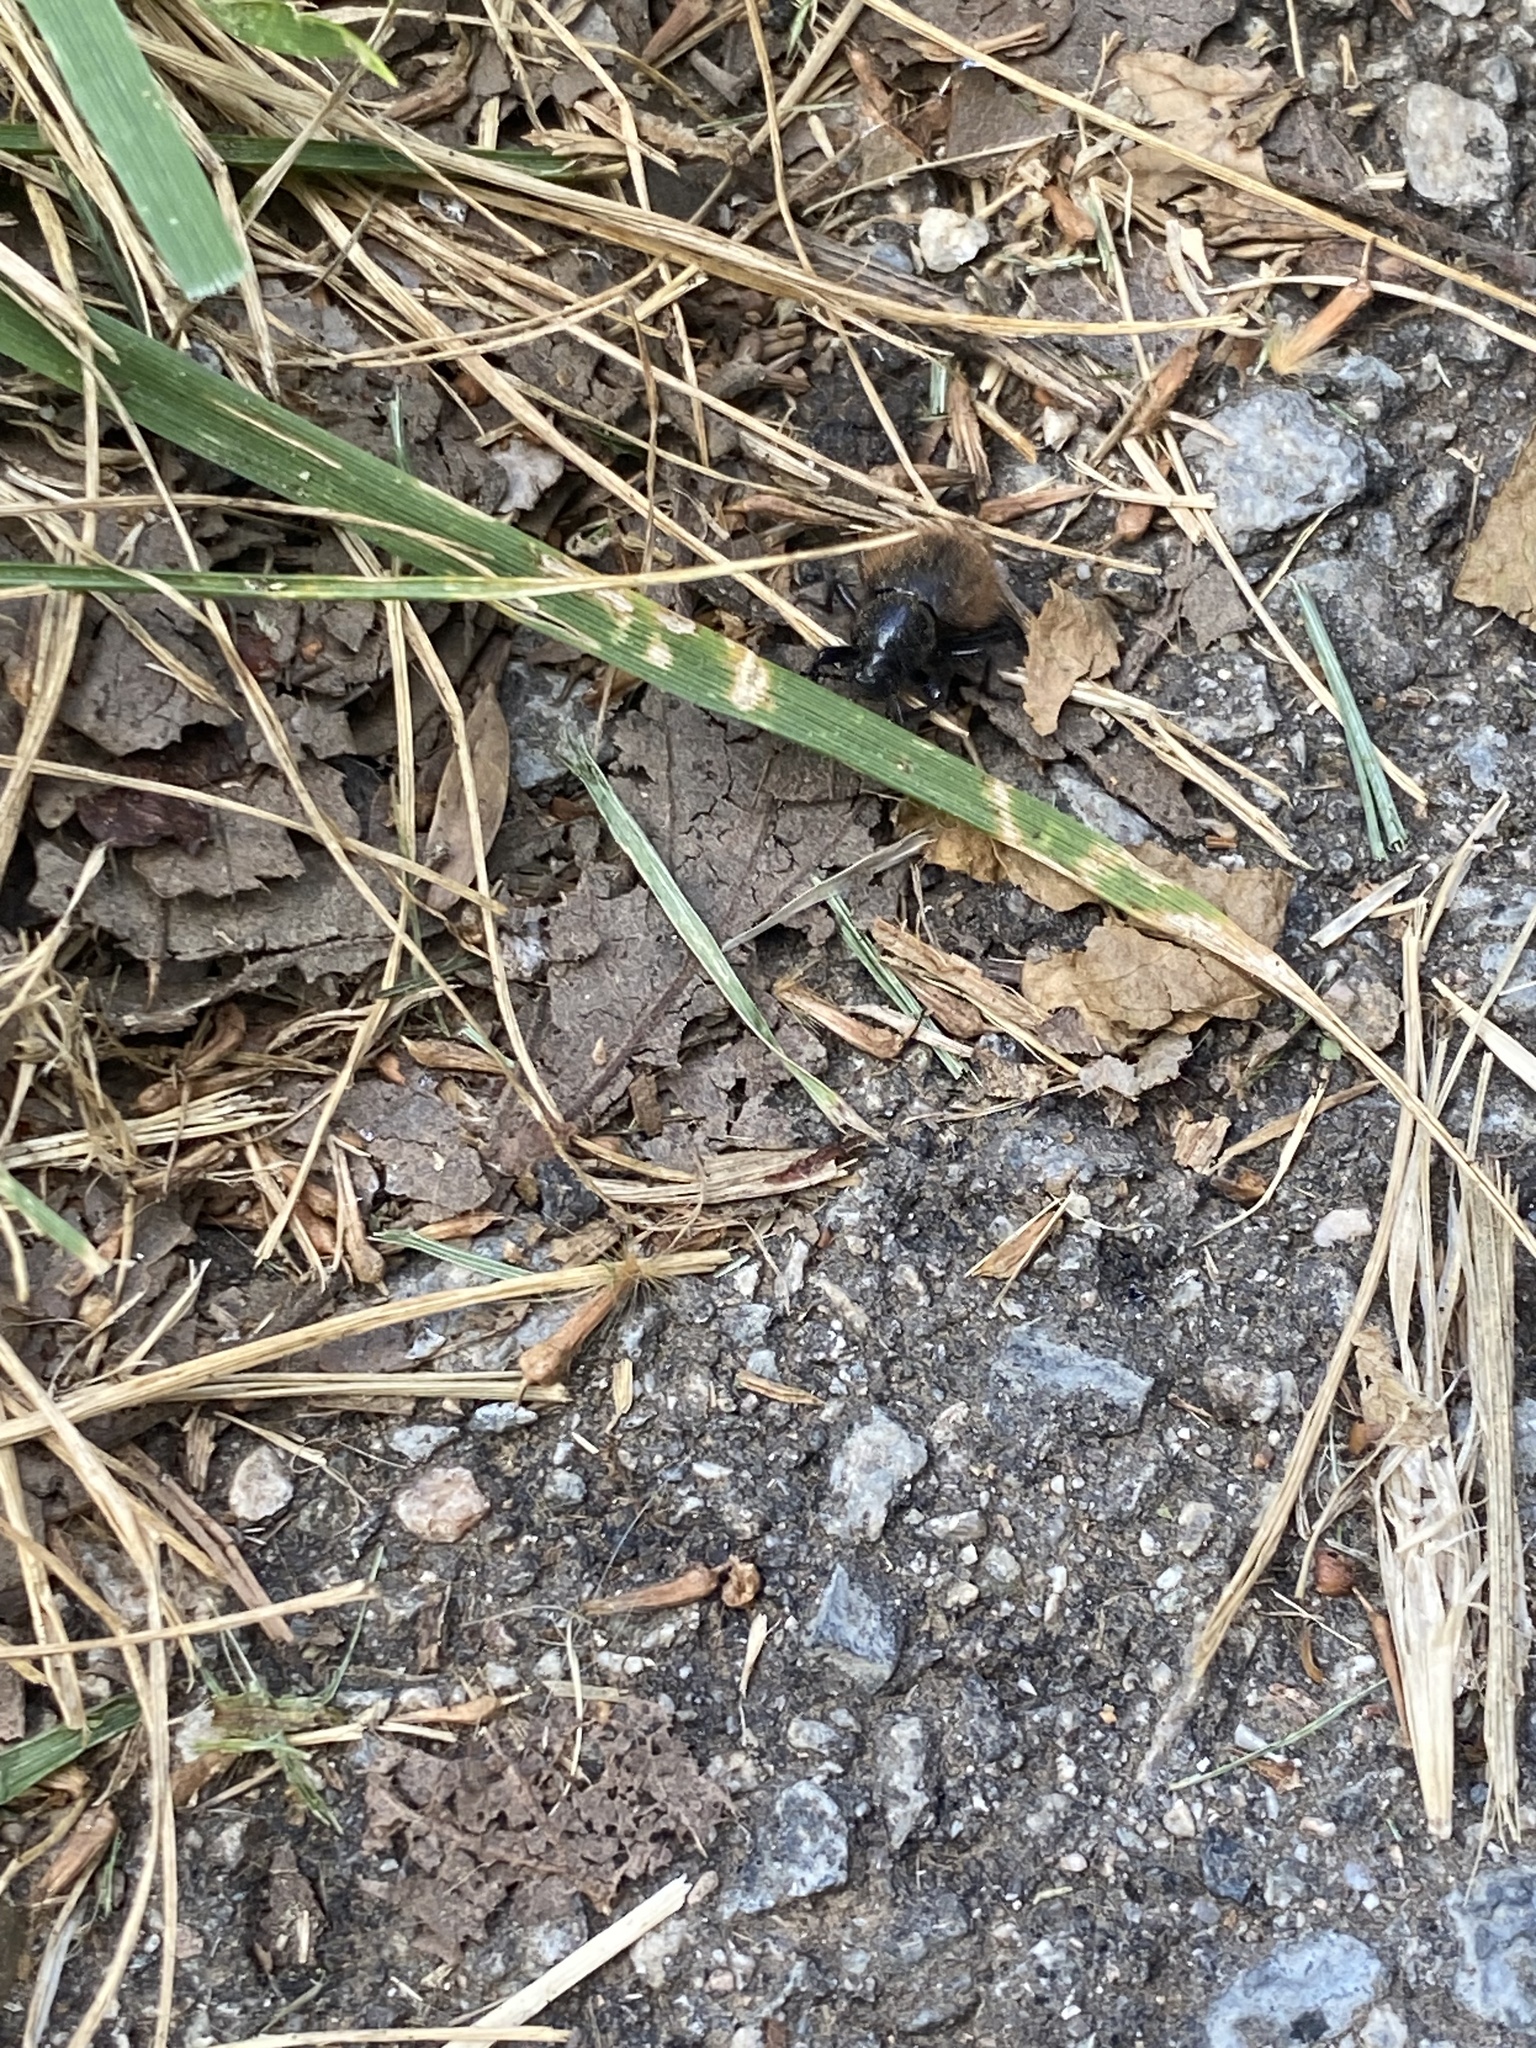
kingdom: Animalia
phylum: Arthropoda
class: Insecta
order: Coleoptera
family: Tenebrionidae
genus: Eleodes
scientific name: Eleodes osculans
